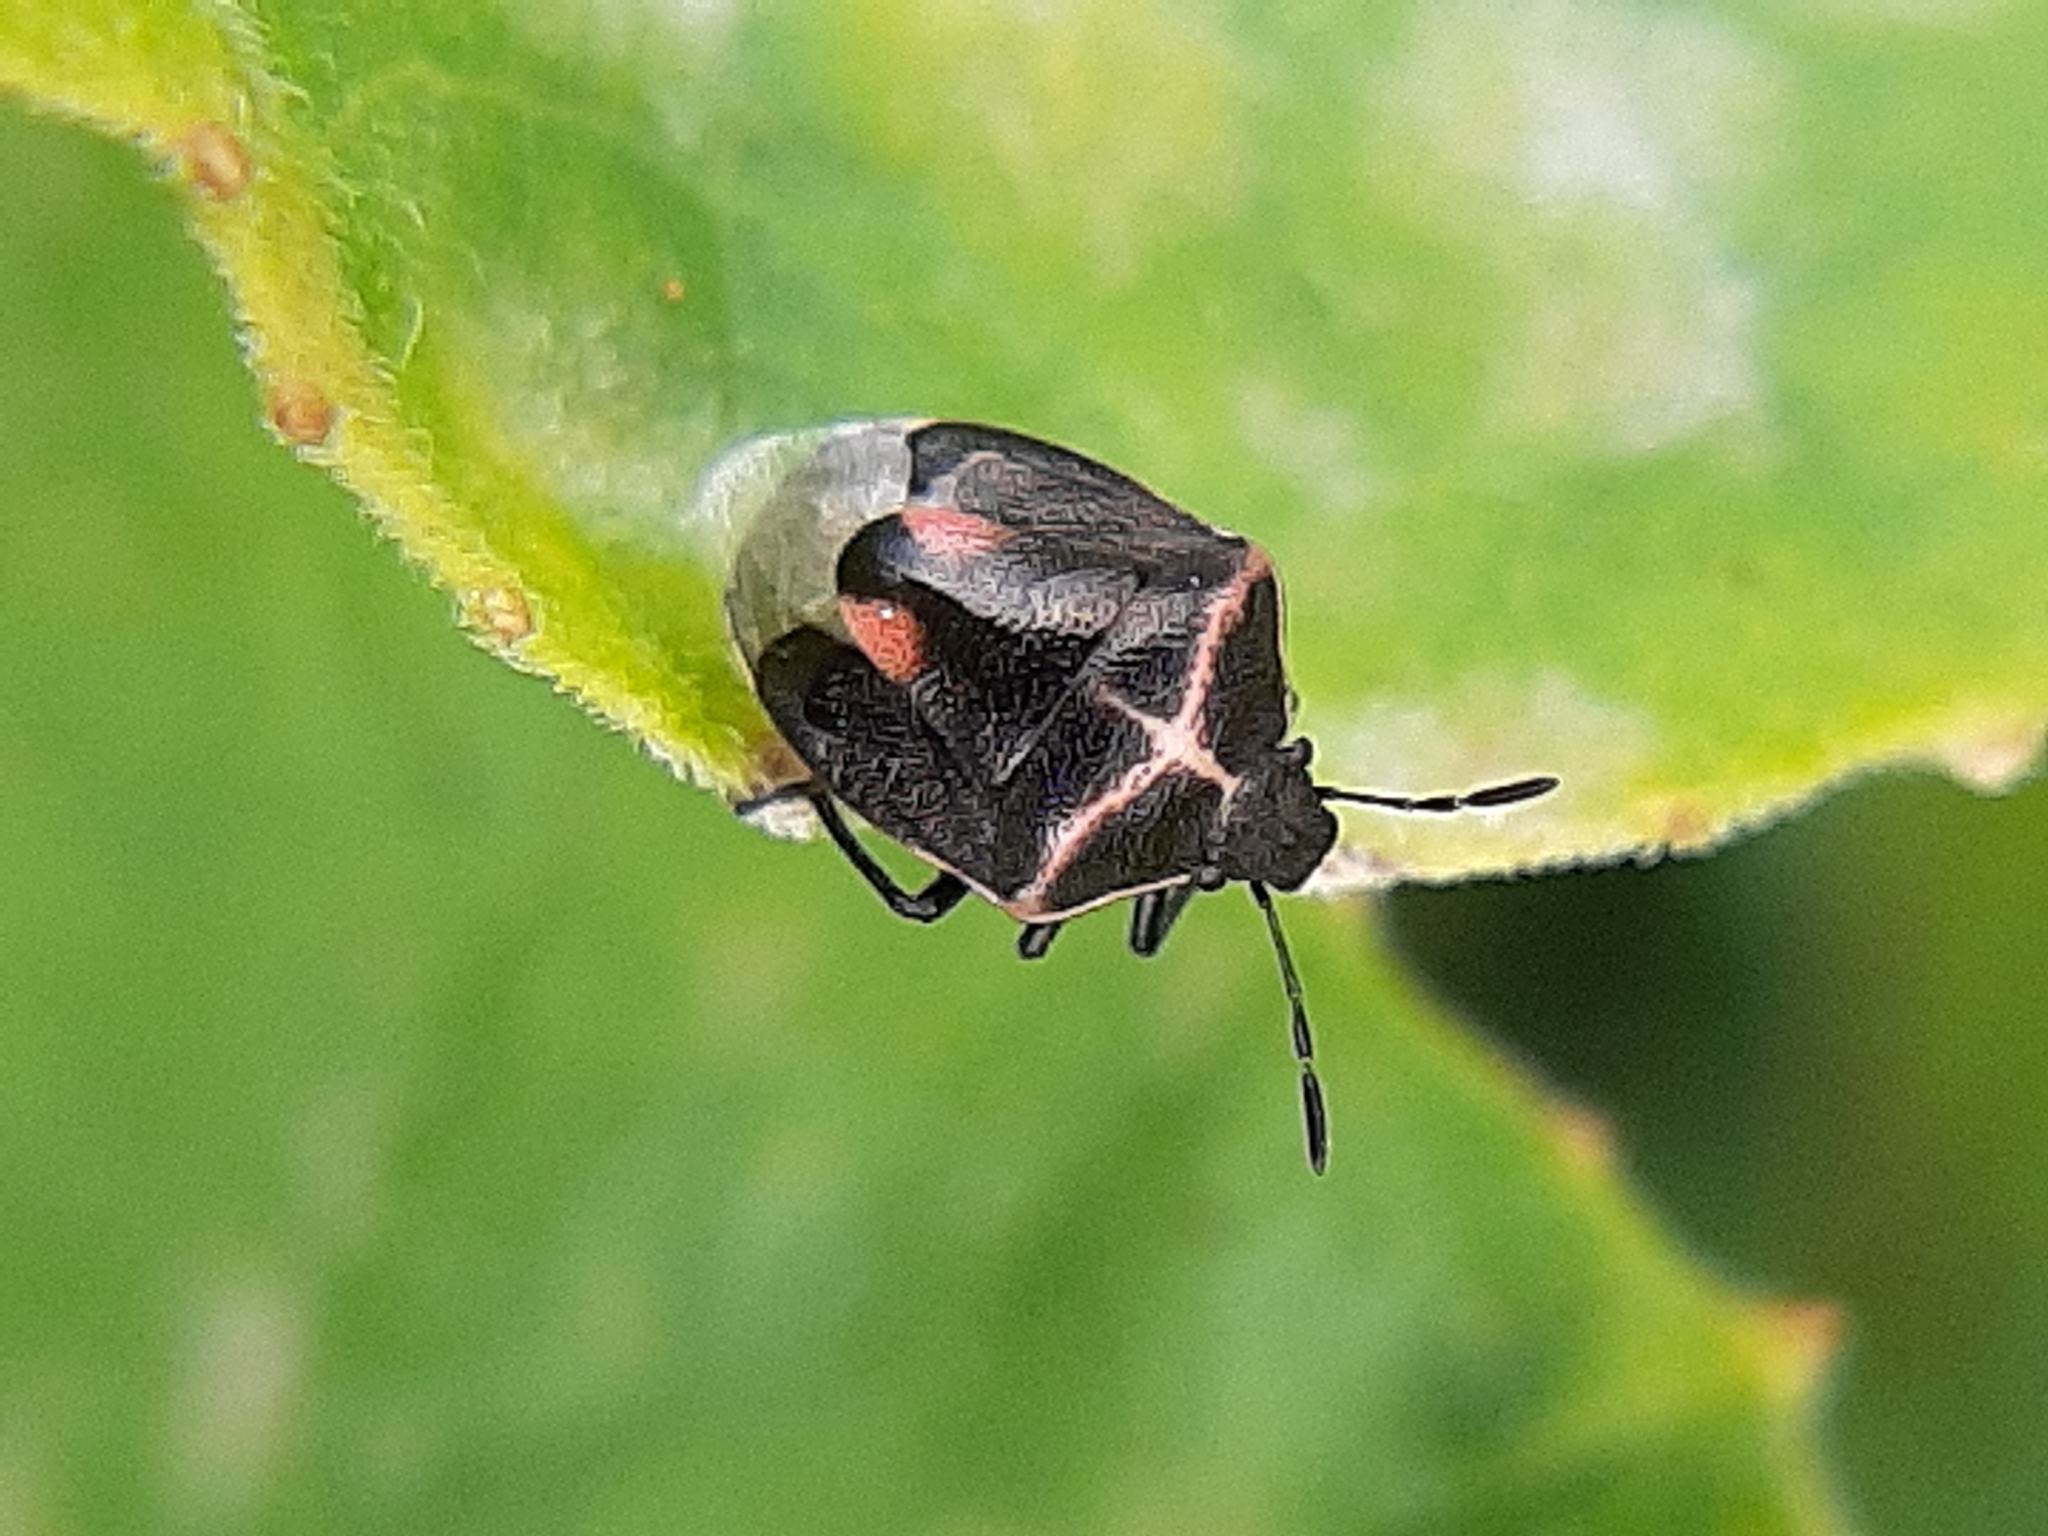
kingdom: Animalia
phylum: Arthropoda
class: Insecta
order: Hemiptera
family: Pentatomidae
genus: Cosmopepla
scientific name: Cosmopepla lintneriana
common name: Twice-stabbed stink bug
